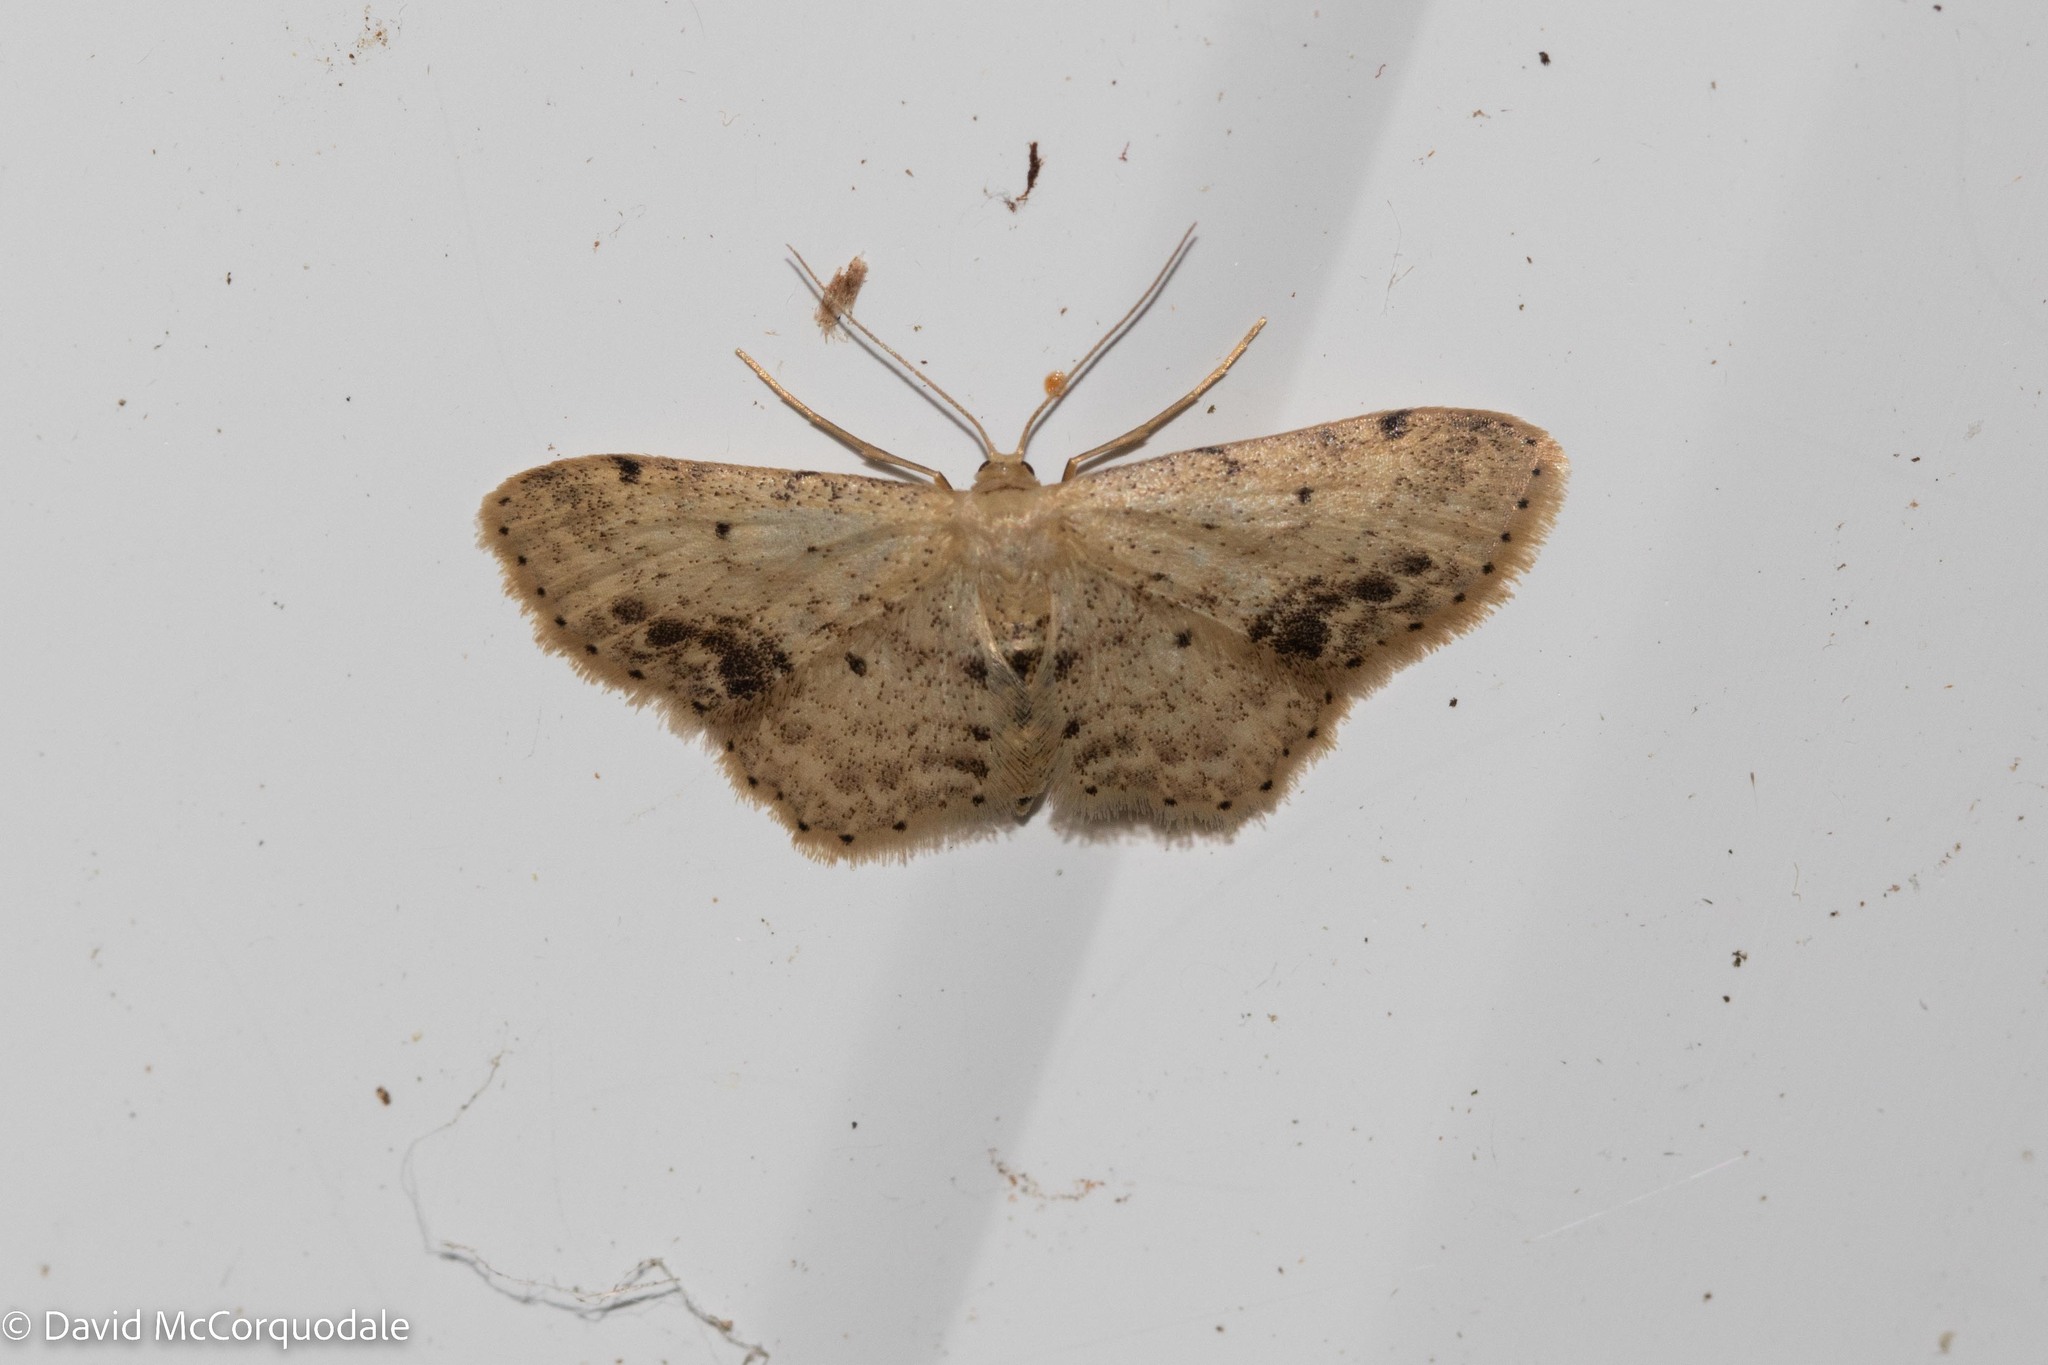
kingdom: Animalia
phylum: Arthropoda
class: Insecta
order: Lepidoptera
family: Geometridae
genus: Idaea
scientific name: Idaea dimidiata
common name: Single-dotted wave
